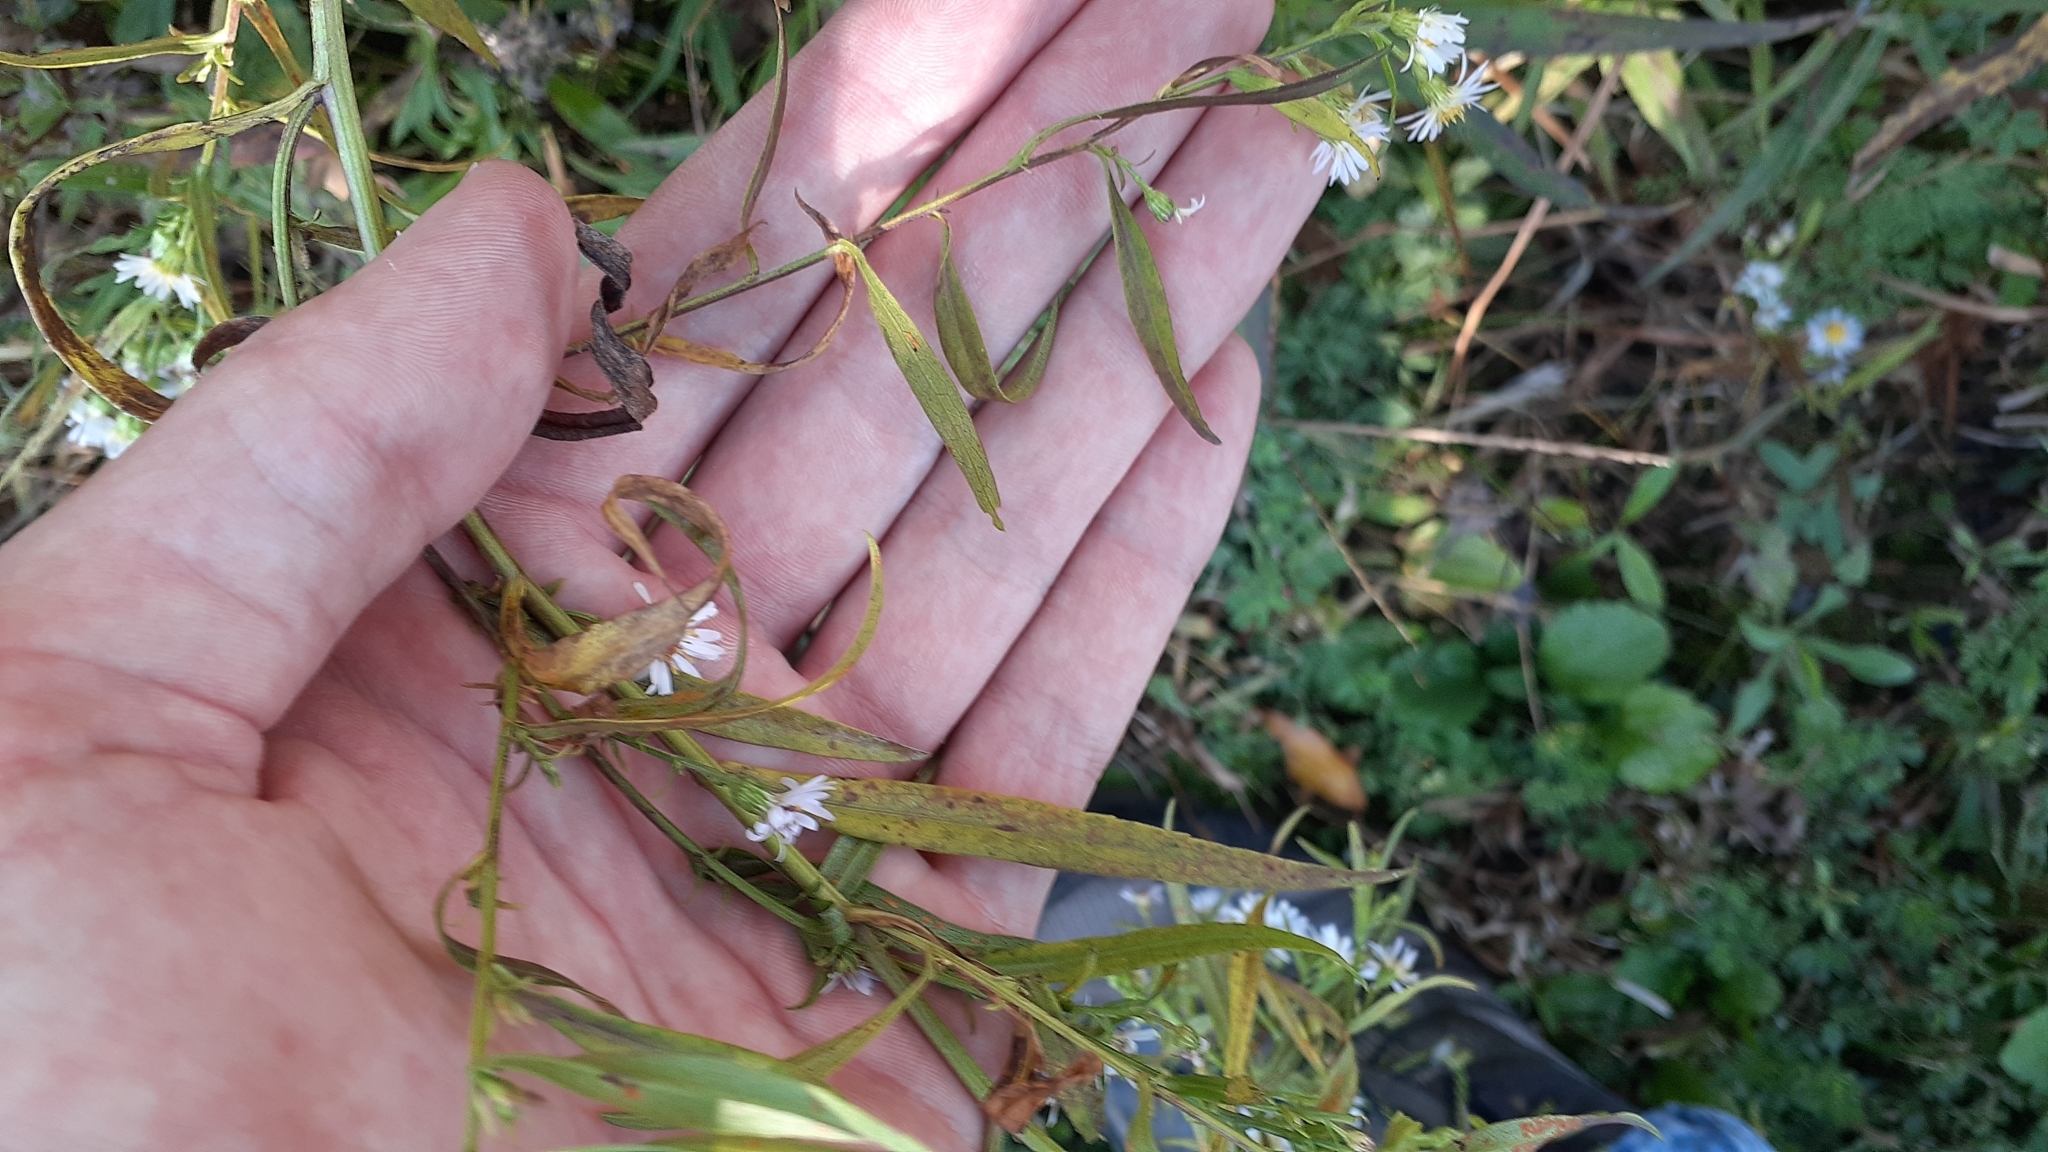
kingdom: Plantae
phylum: Tracheophyta
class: Magnoliopsida
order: Asterales
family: Asteraceae
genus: Symphyotrichum
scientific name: Symphyotrichum lanceolatum
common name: Panicled aster
